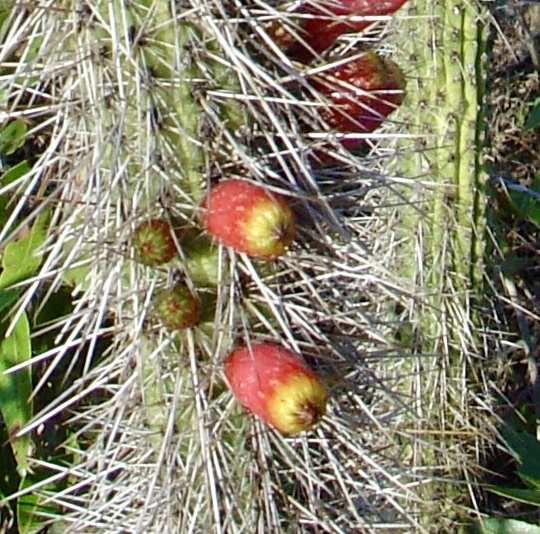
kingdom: Plantae
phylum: Tracheophyta
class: Magnoliopsida
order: Caryophyllales
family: Cactaceae
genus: Cleistocactus
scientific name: Cleistocactus candelilla
